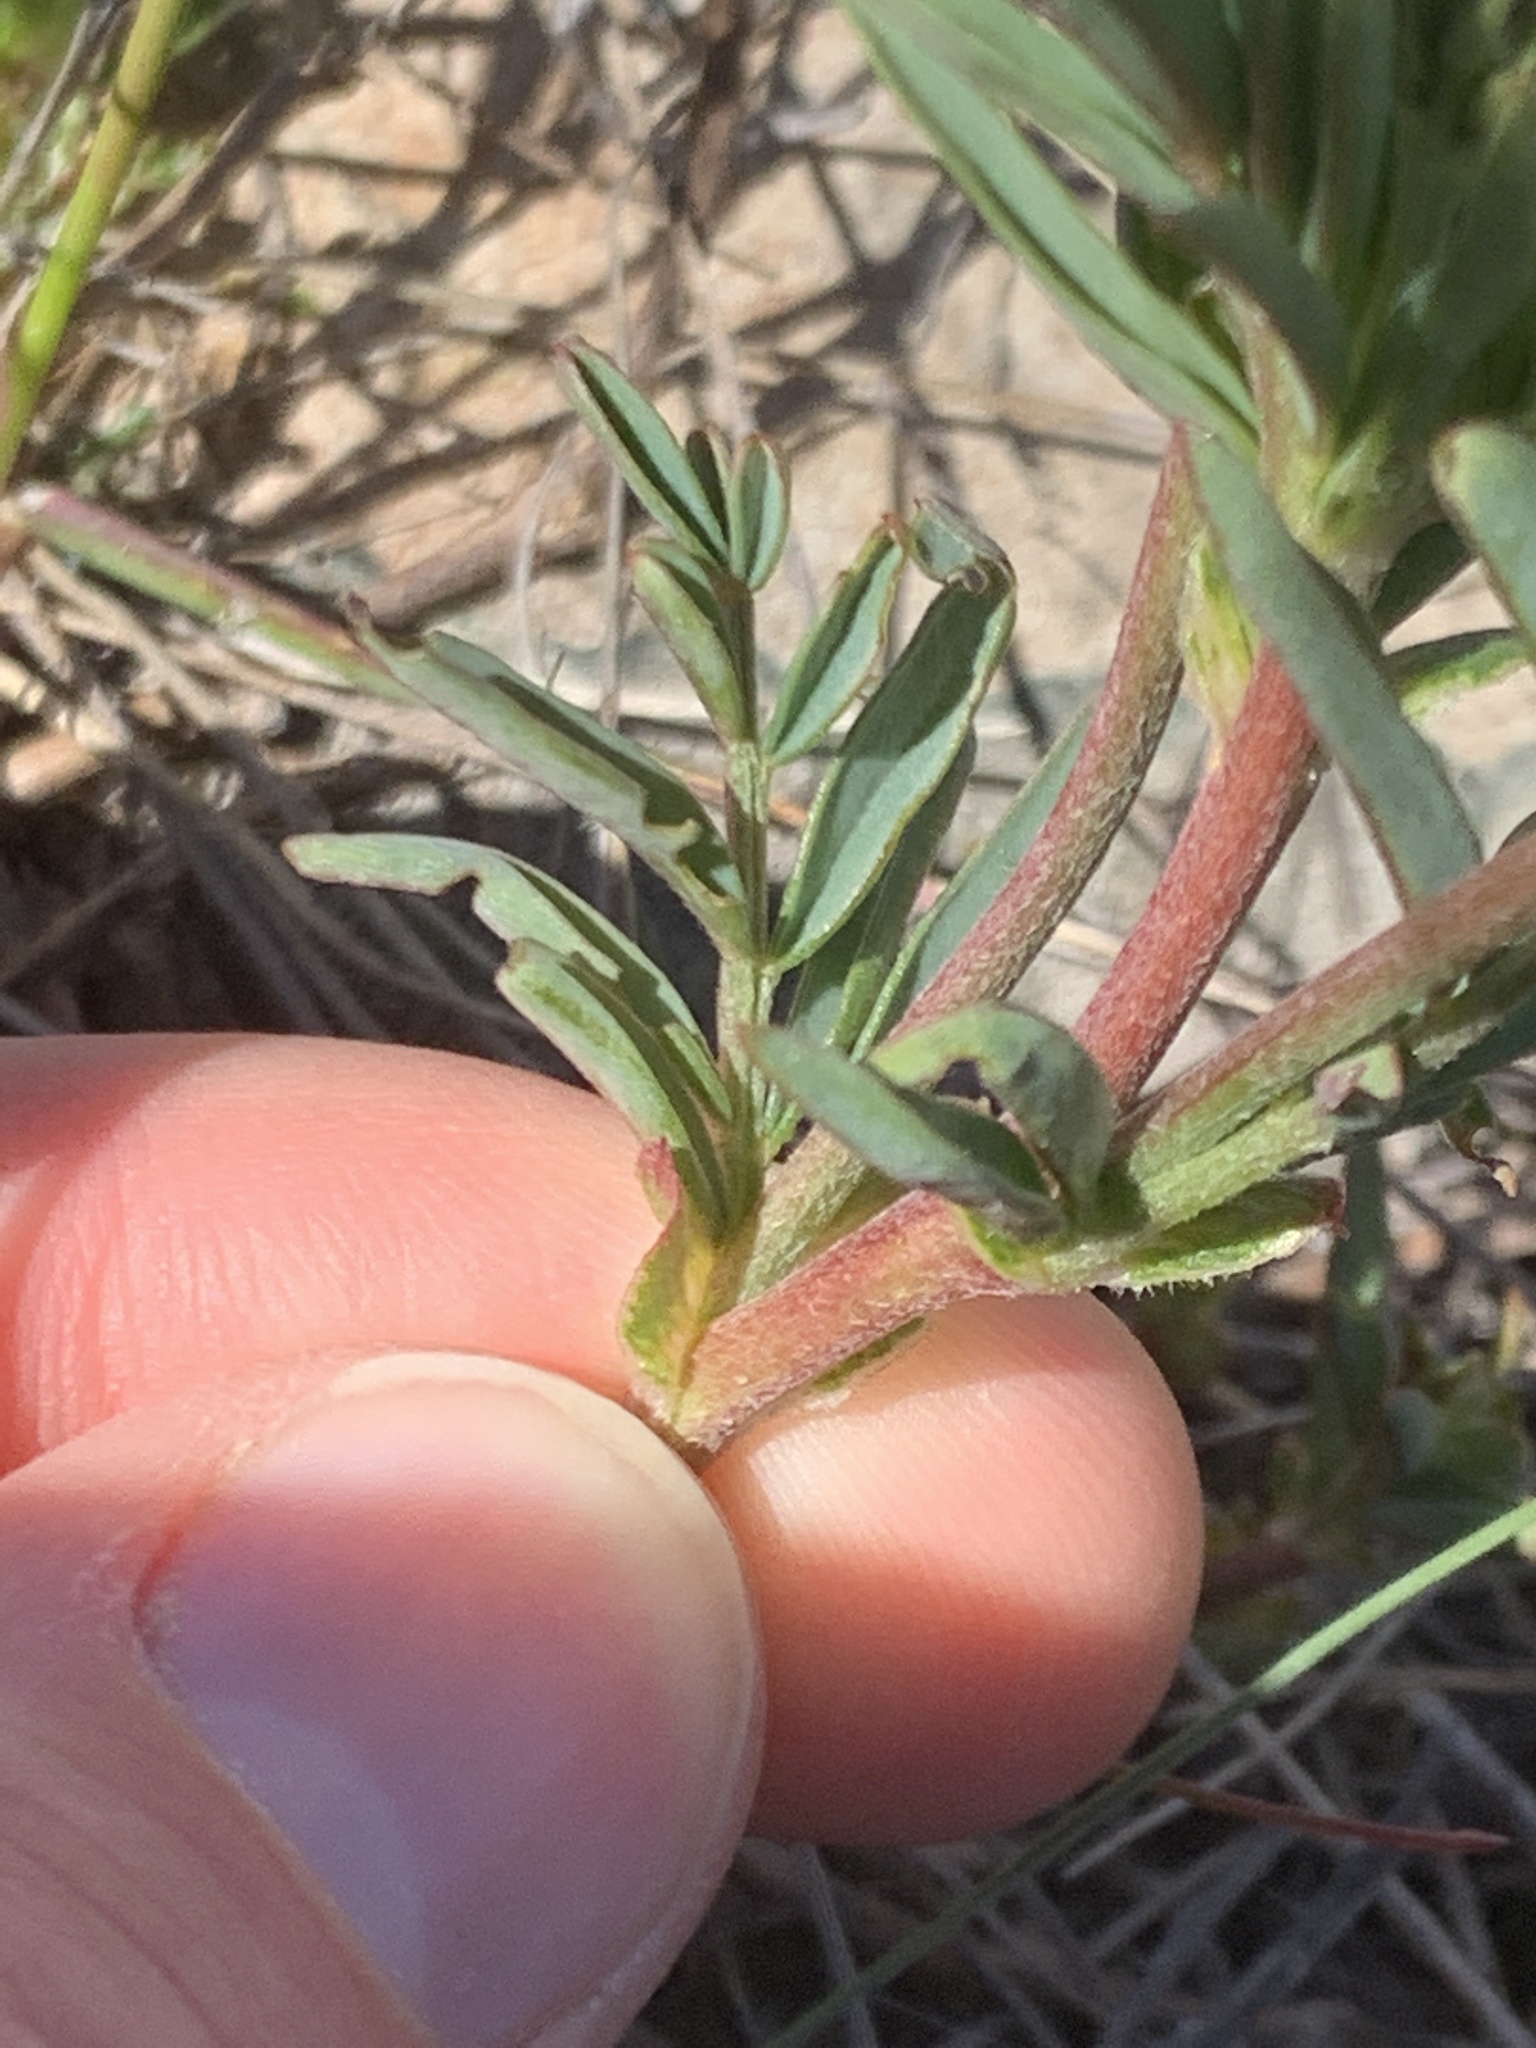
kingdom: Plantae
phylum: Tracheophyta
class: Magnoliopsida
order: Fabales
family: Fabaceae
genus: Astragalus
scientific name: Astragalus australis
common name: Indian milk-vetch
